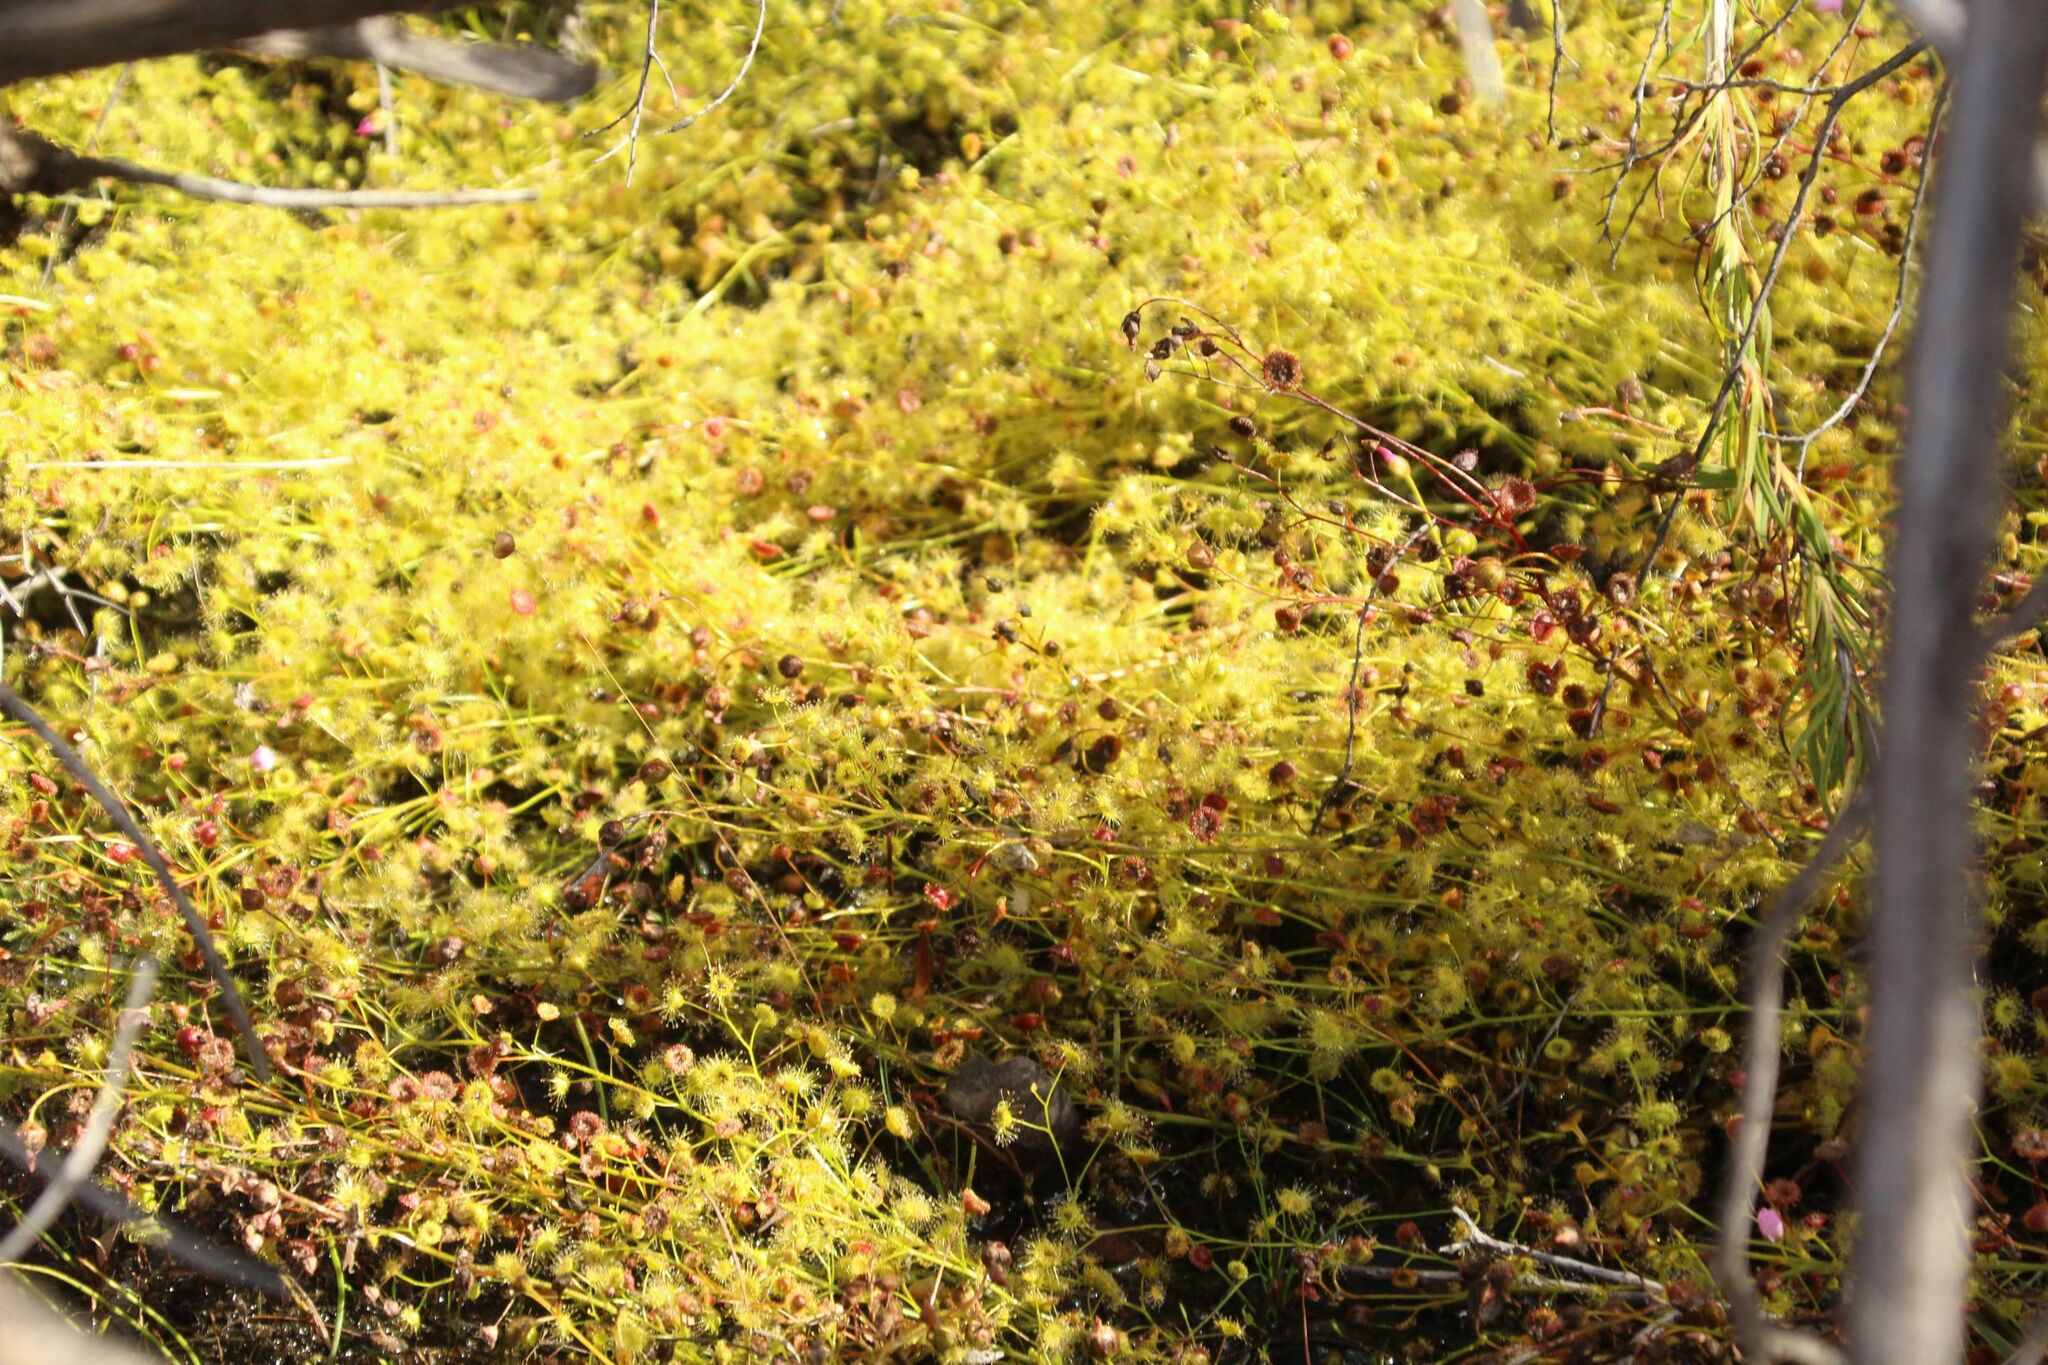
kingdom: Plantae
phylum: Tracheophyta
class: Magnoliopsida
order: Caryophyllales
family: Droseraceae
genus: Drosera
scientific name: Drosera stricticaulis
